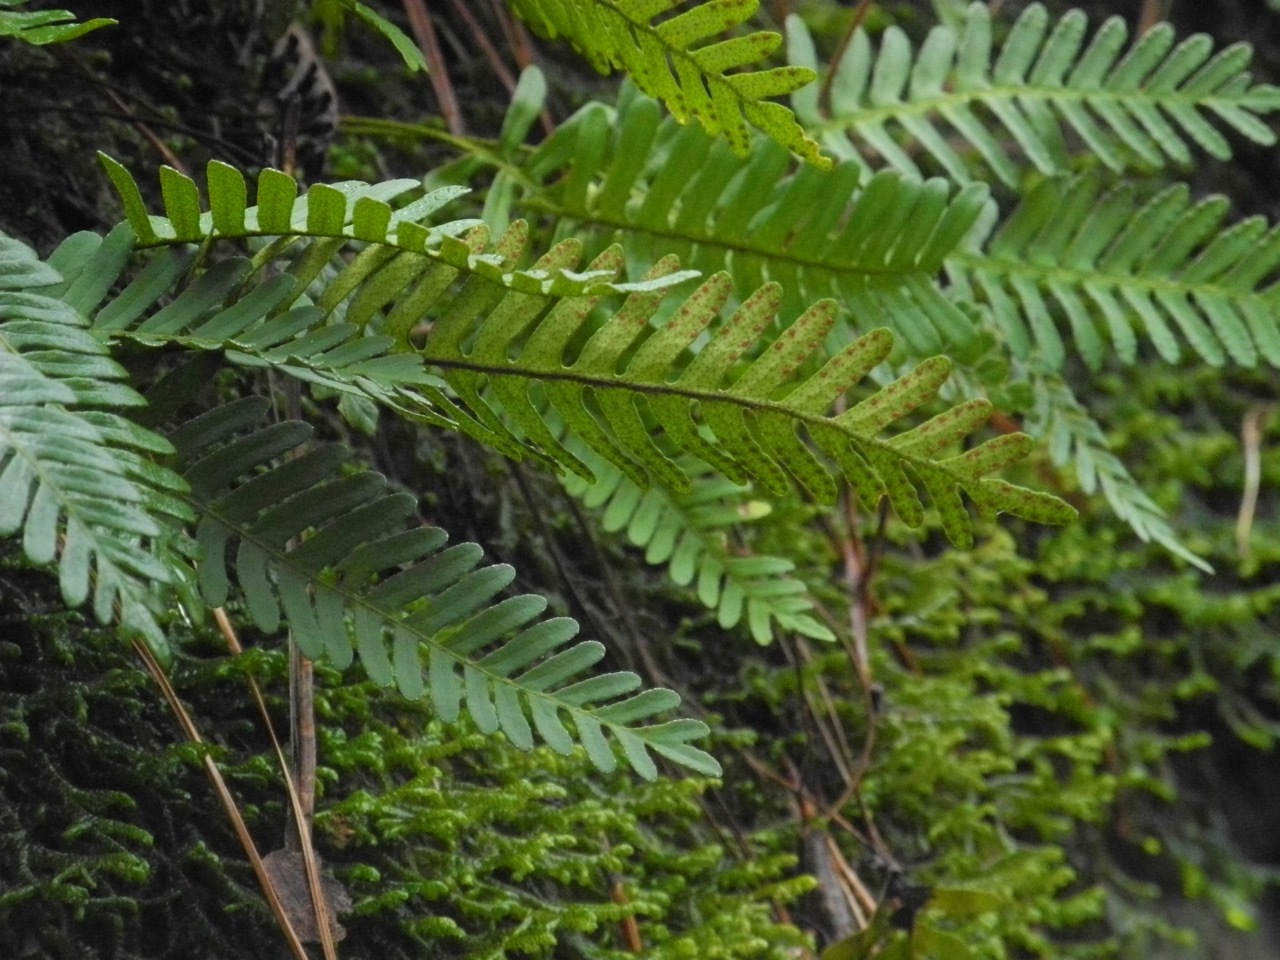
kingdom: Plantae
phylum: Tracheophyta
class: Polypodiopsida
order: Polypodiales
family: Polypodiaceae
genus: Pleopeltis
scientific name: Pleopeltis michauxiana
